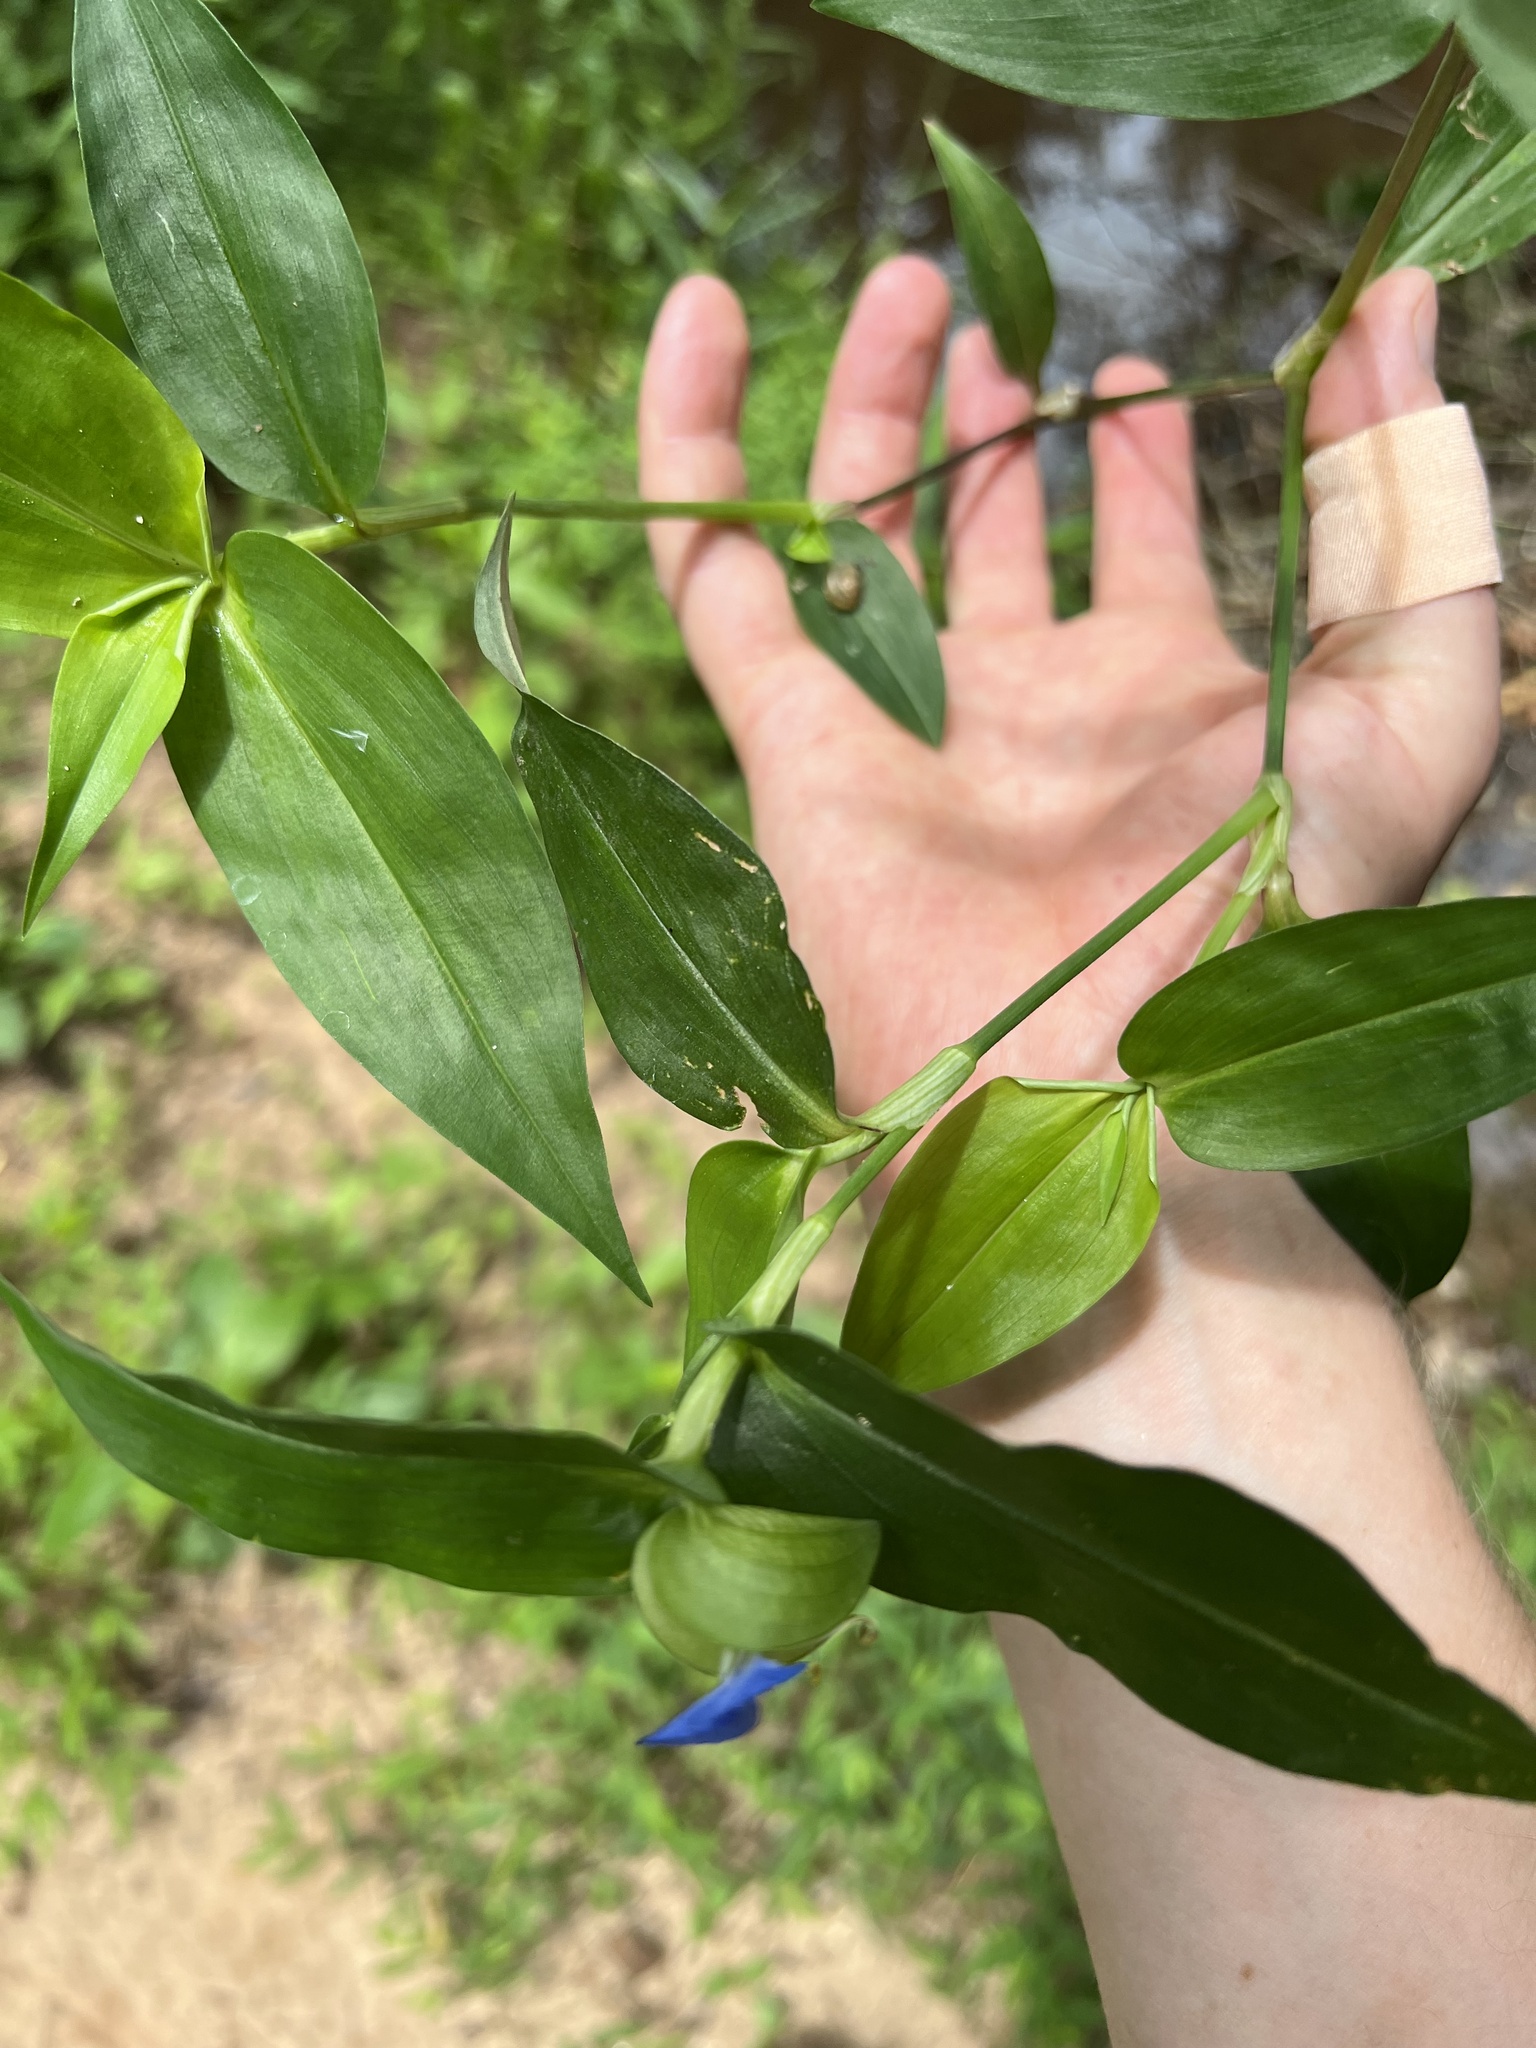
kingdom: Plantae
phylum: Tracheophyta
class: Liliopsida
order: Commelinales
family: Commelinaceae
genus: Commelina
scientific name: Commelina communis
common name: Asiatic dayflower
